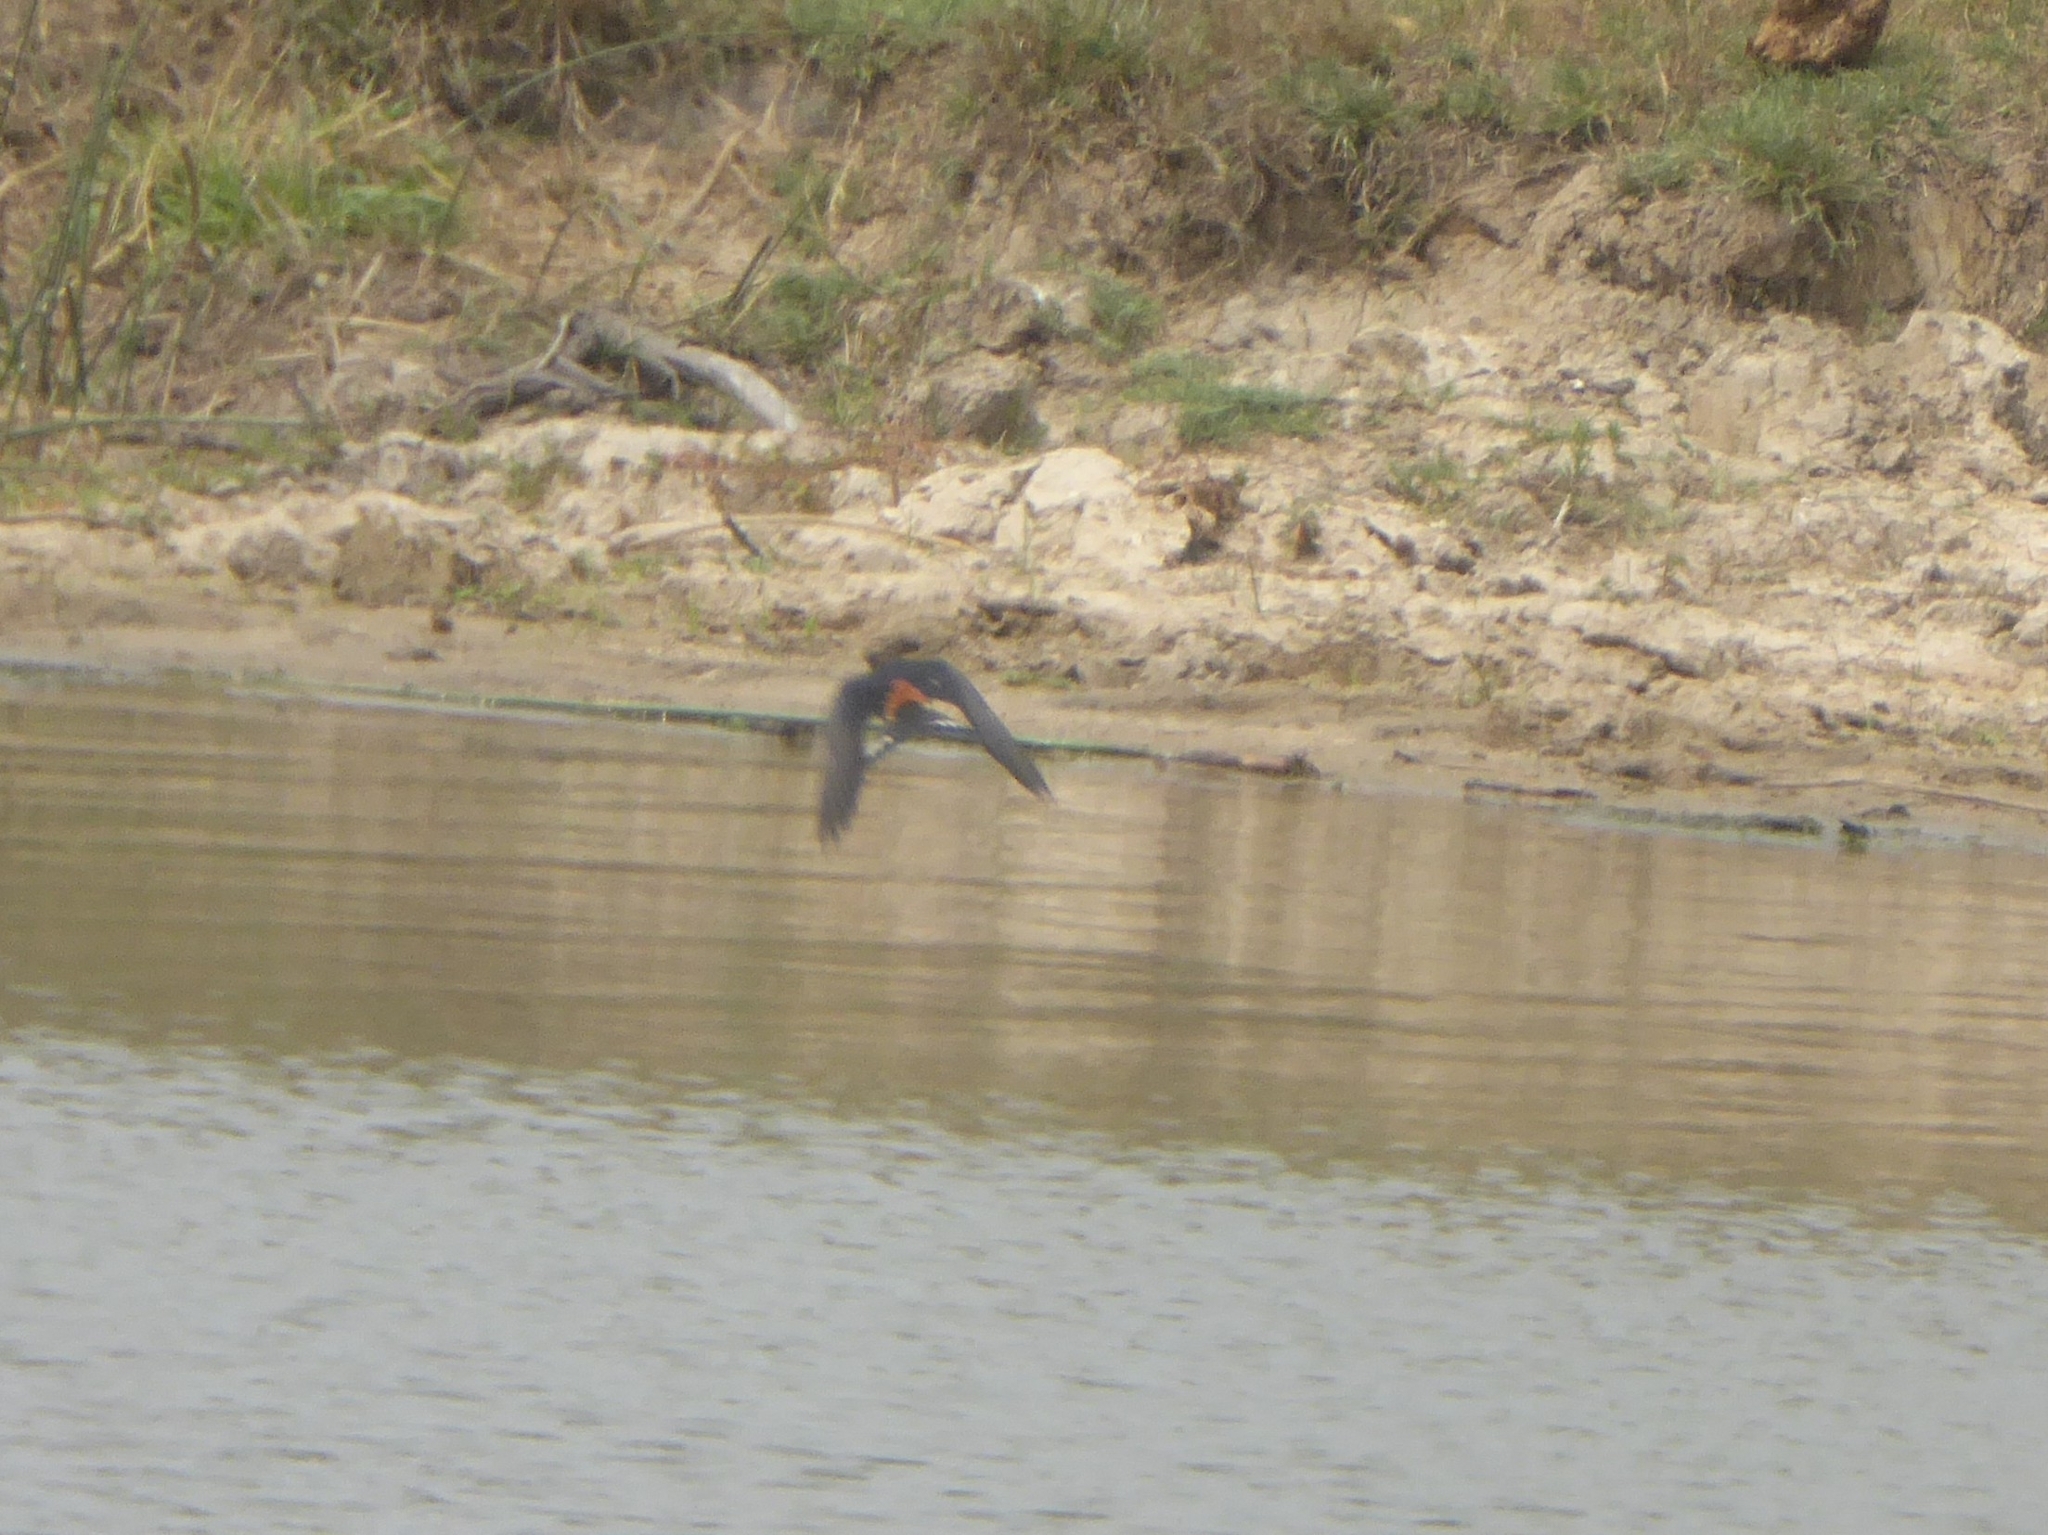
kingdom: Animalia
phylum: Chordata
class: Aves
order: Passeriformes
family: Hirundinidae
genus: Cecropis
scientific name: Cecropis semirufa
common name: Red-breasted swallow
